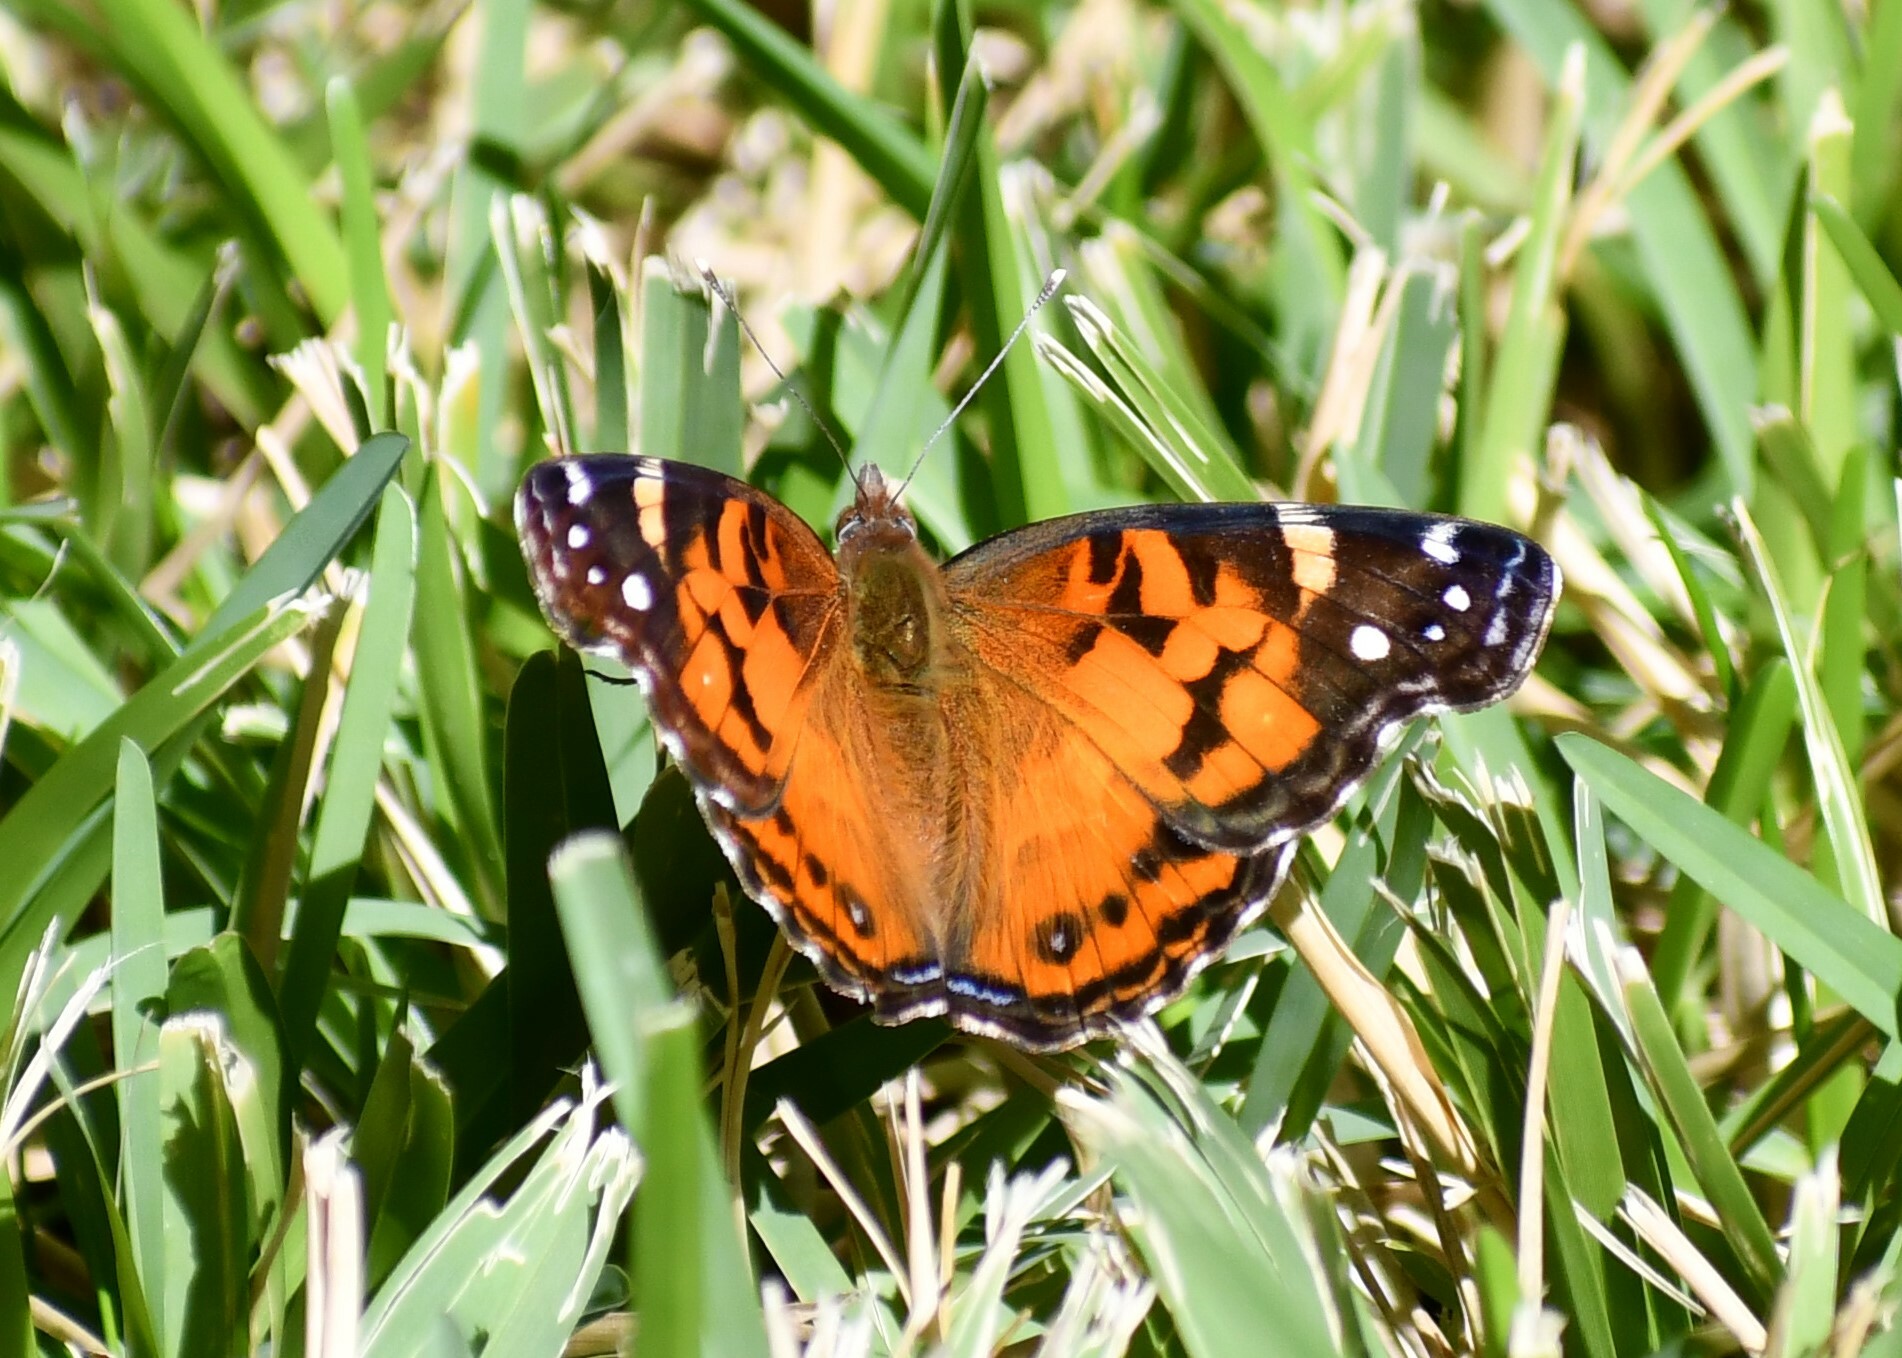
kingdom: Animalia
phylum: Arthropoda
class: Insecta
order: Lepidoptera
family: Nymphalidae
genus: Vanessa
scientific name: Vanessa virginiensis
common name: American lady
